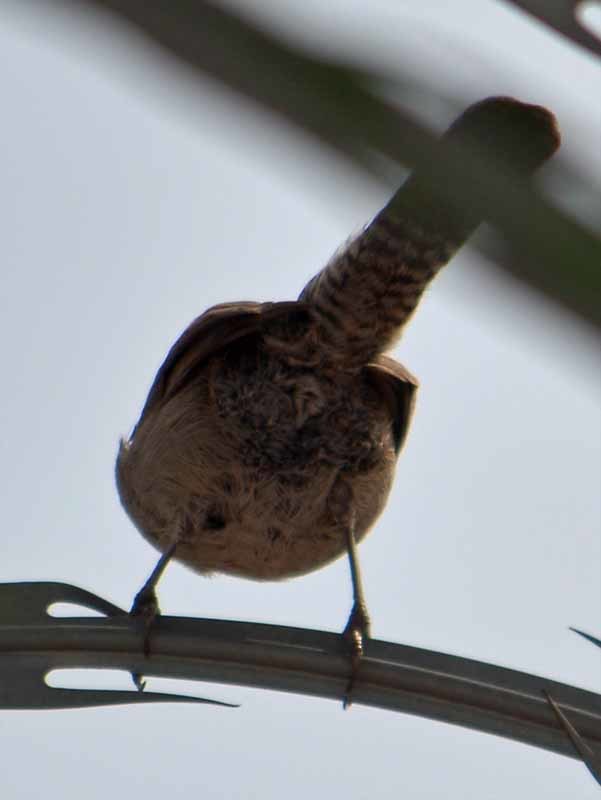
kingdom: Animalia
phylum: Chordata
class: Aves
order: Passeriformes
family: Troglodytidae
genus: Thryomanes
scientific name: Thryomanes bewickii
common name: Bewick's wren
